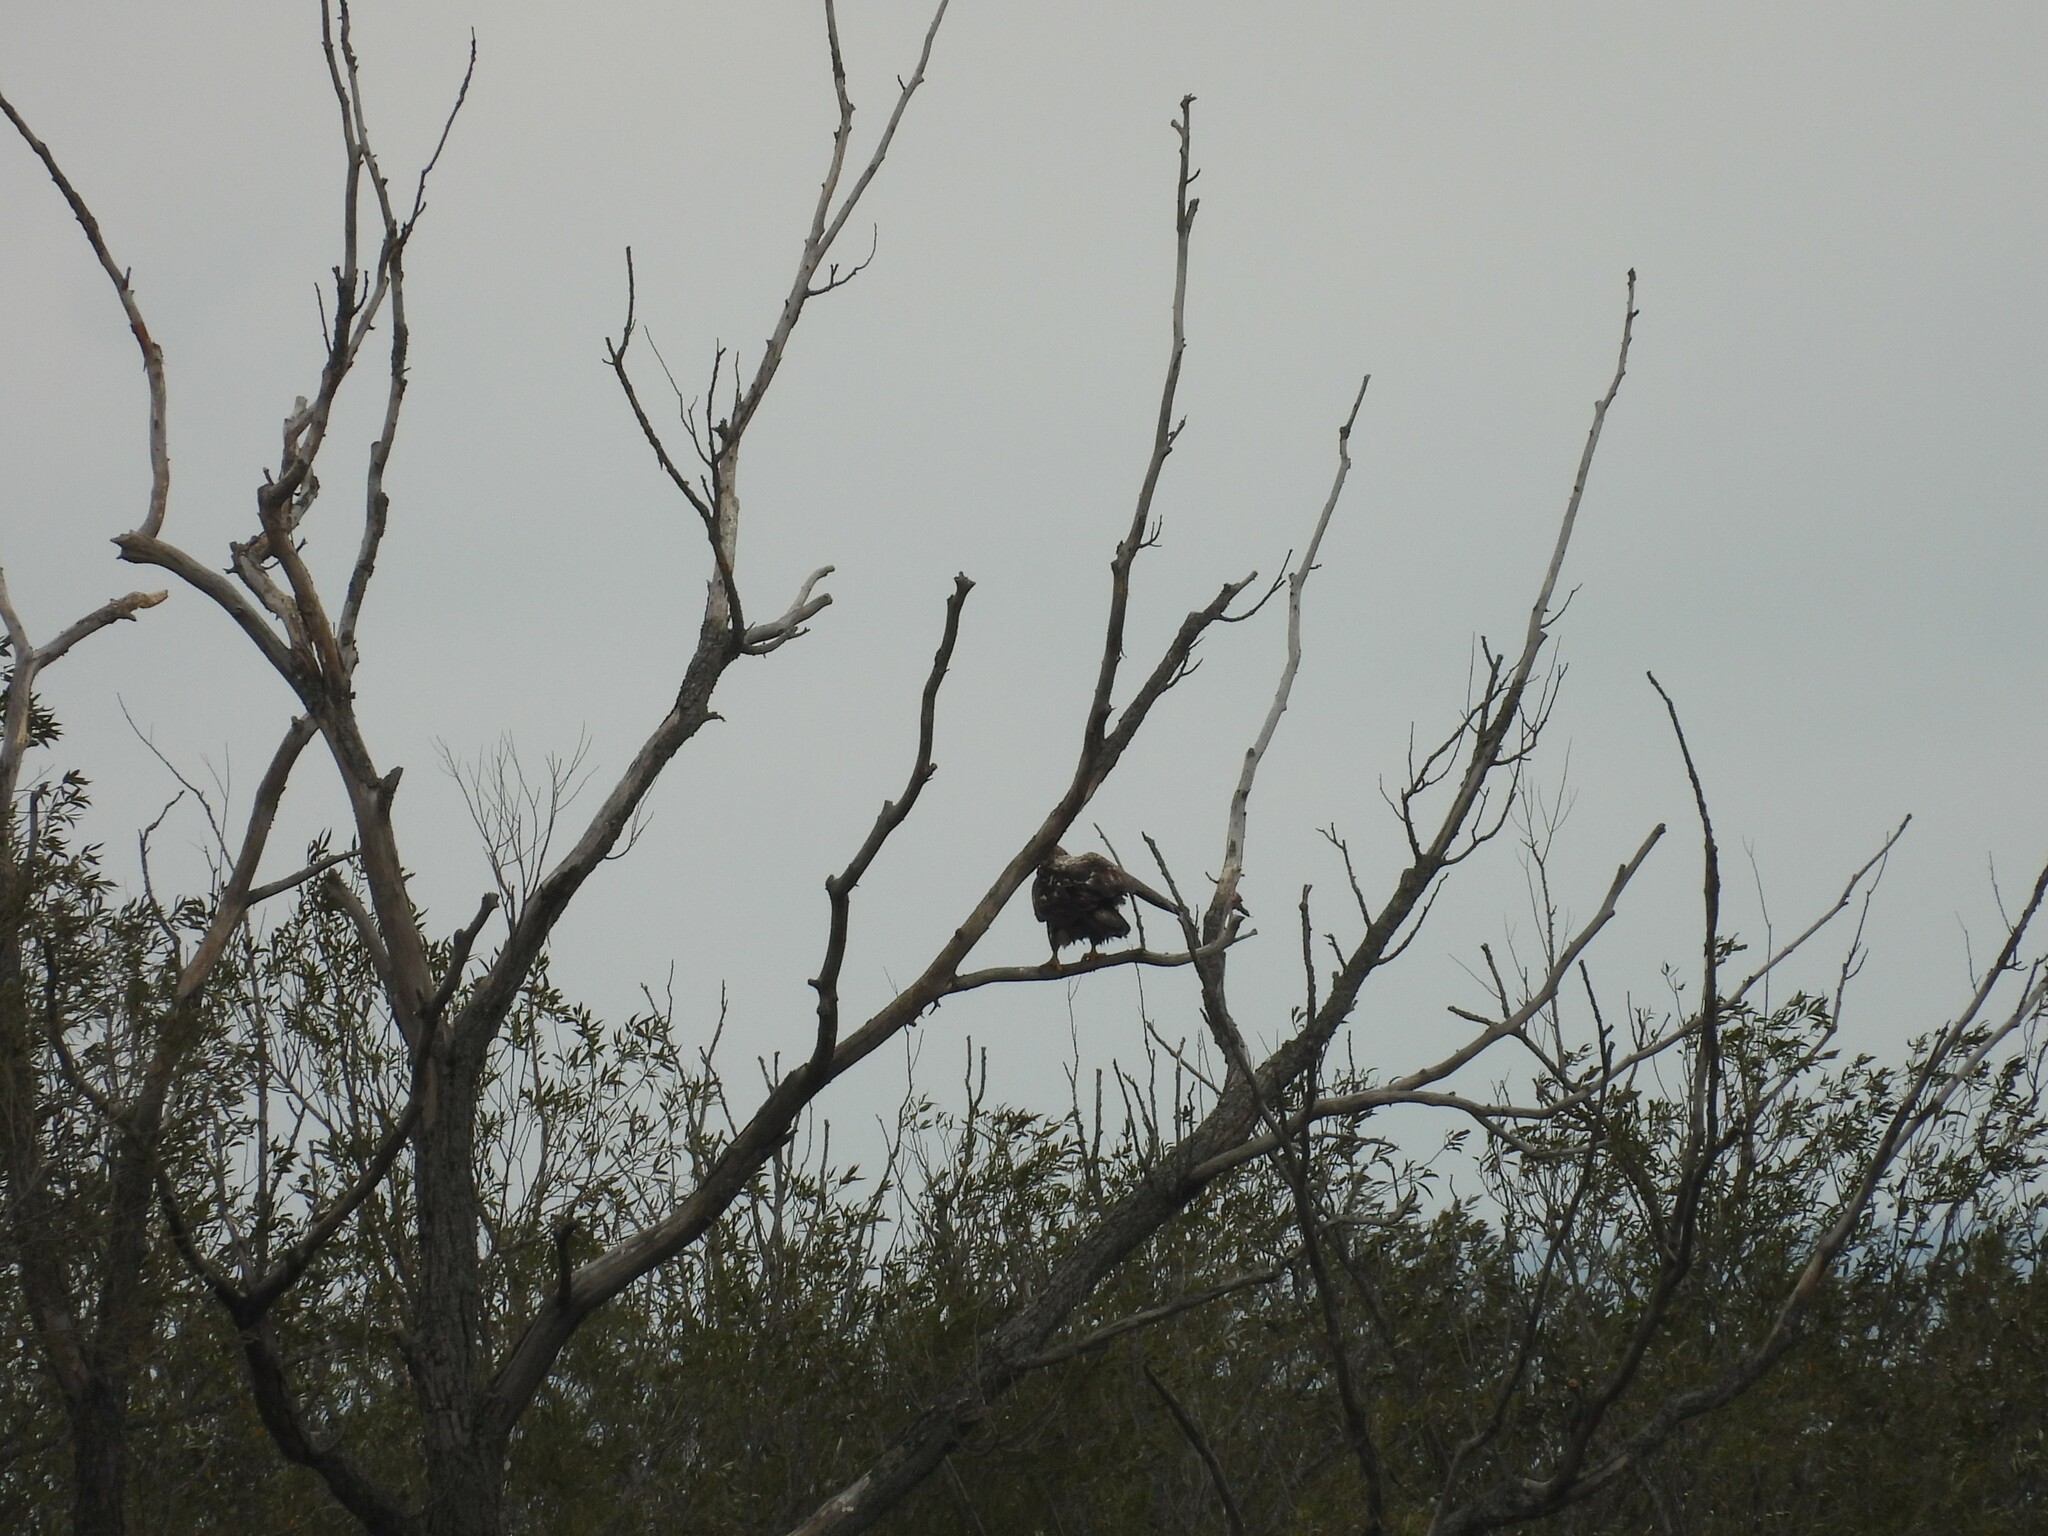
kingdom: Animalia
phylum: Chordata
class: Aves
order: Accipitriformes
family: Accipitridae
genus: Haliaeetus
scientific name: Haliaeetus leucocephalus
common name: Bald eagle
